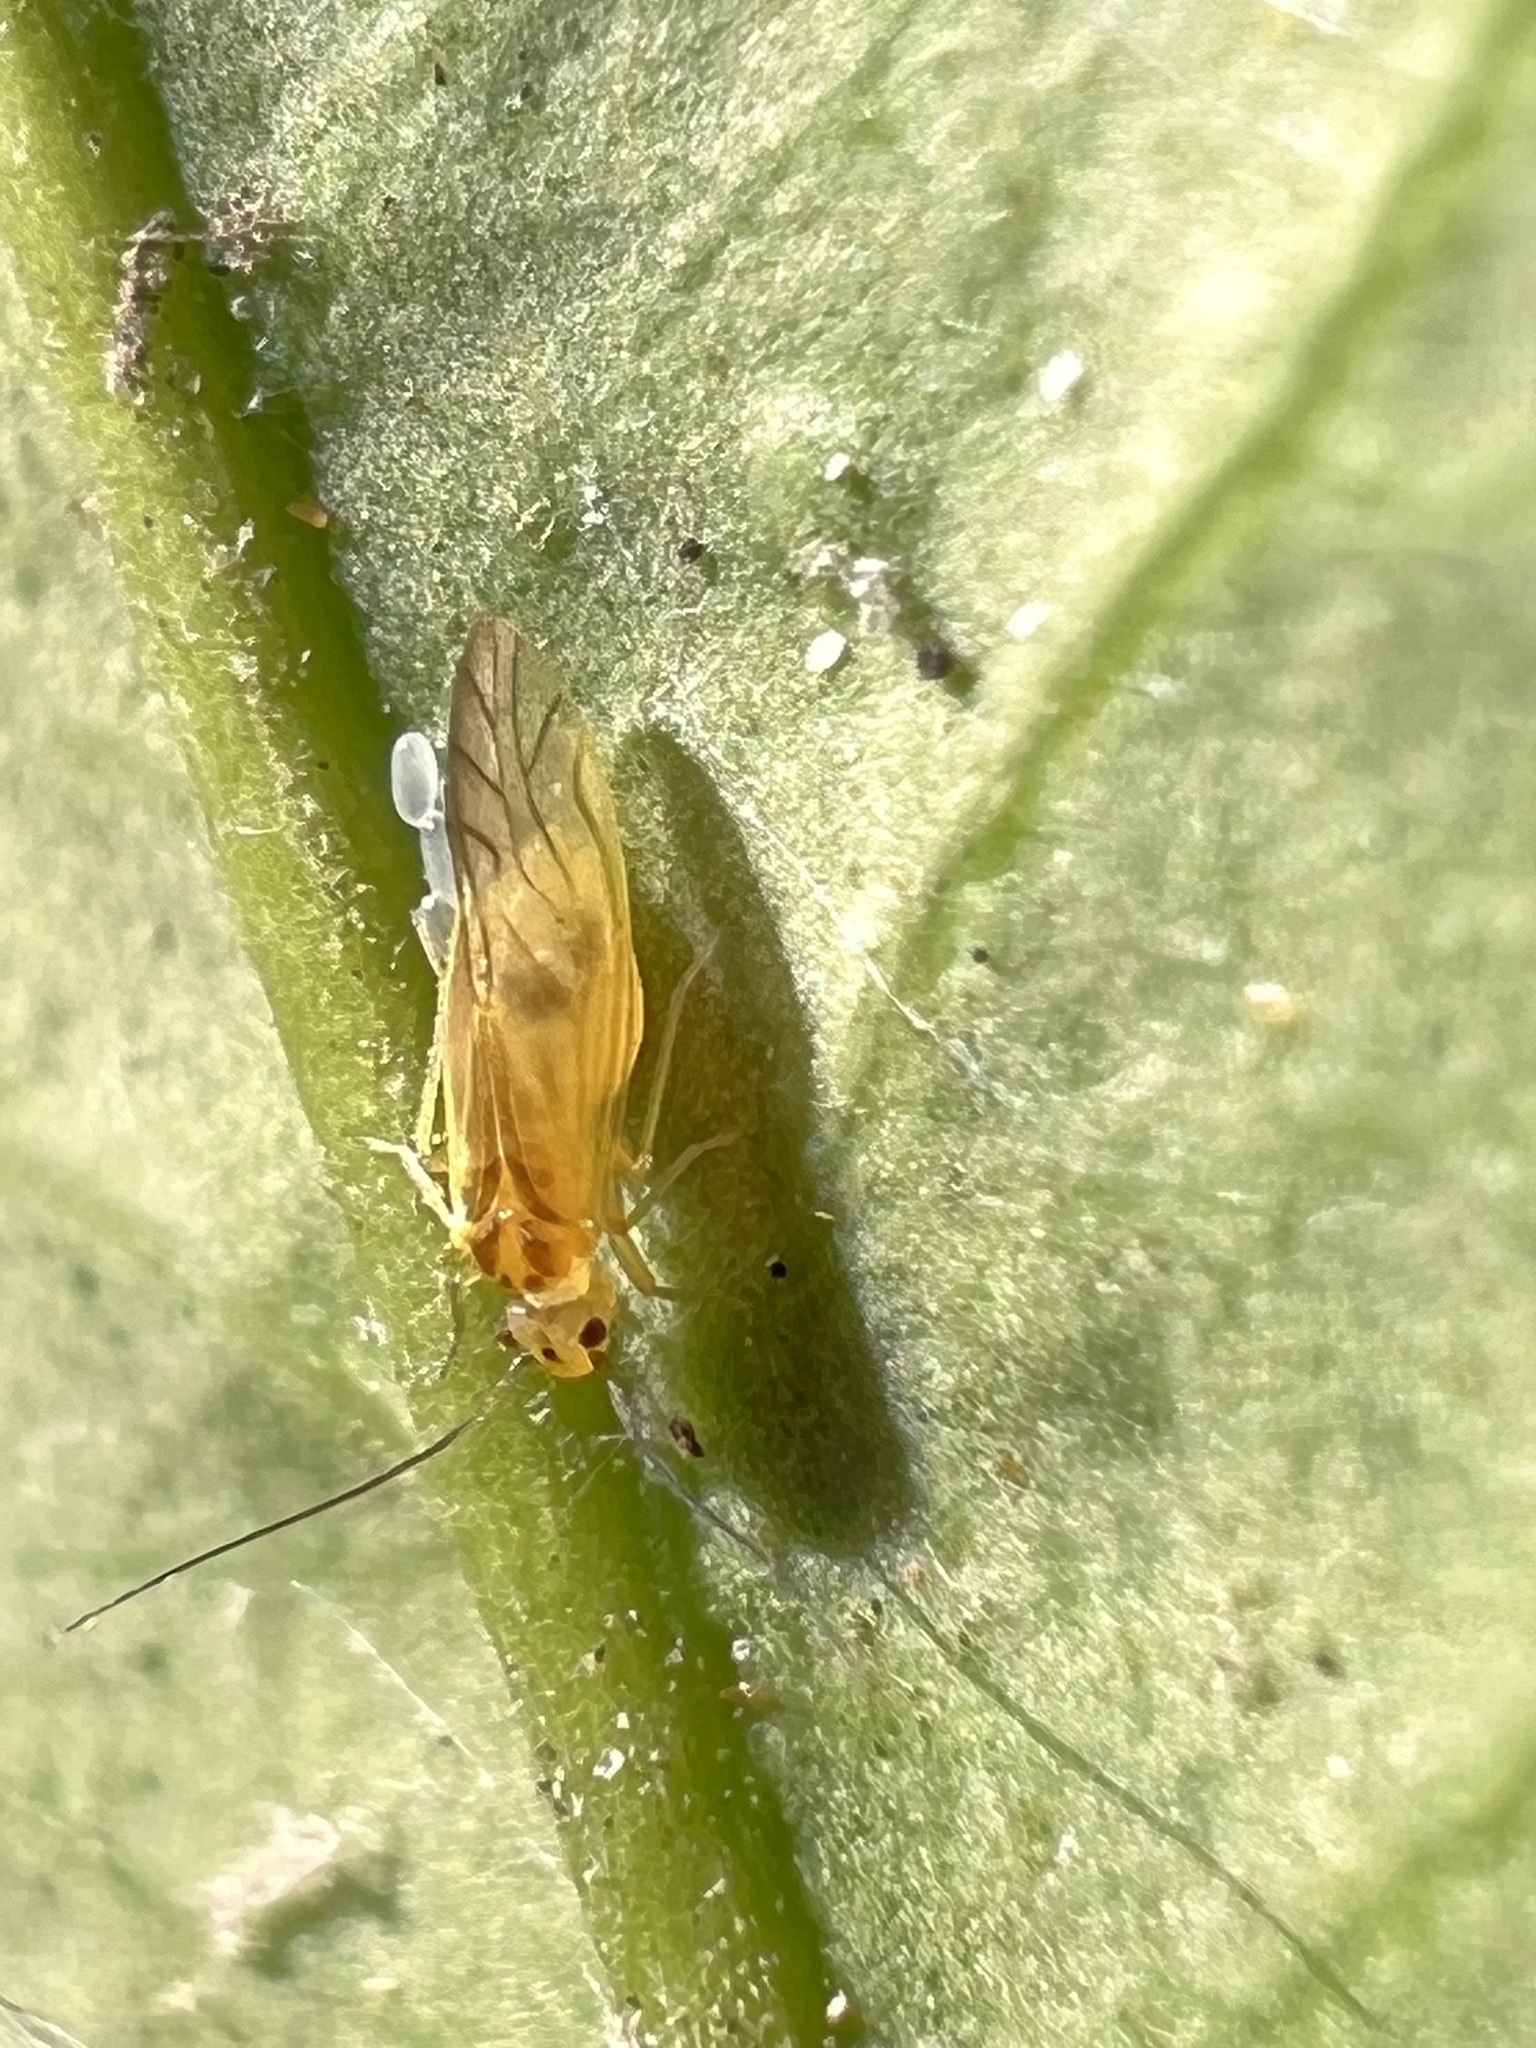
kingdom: Animalia
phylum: Arthropoda
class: Insecta
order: Psocodea
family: Caeciliusidae
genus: Valenzuela
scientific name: Valenzuela flavidus
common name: Yellow barklouse
